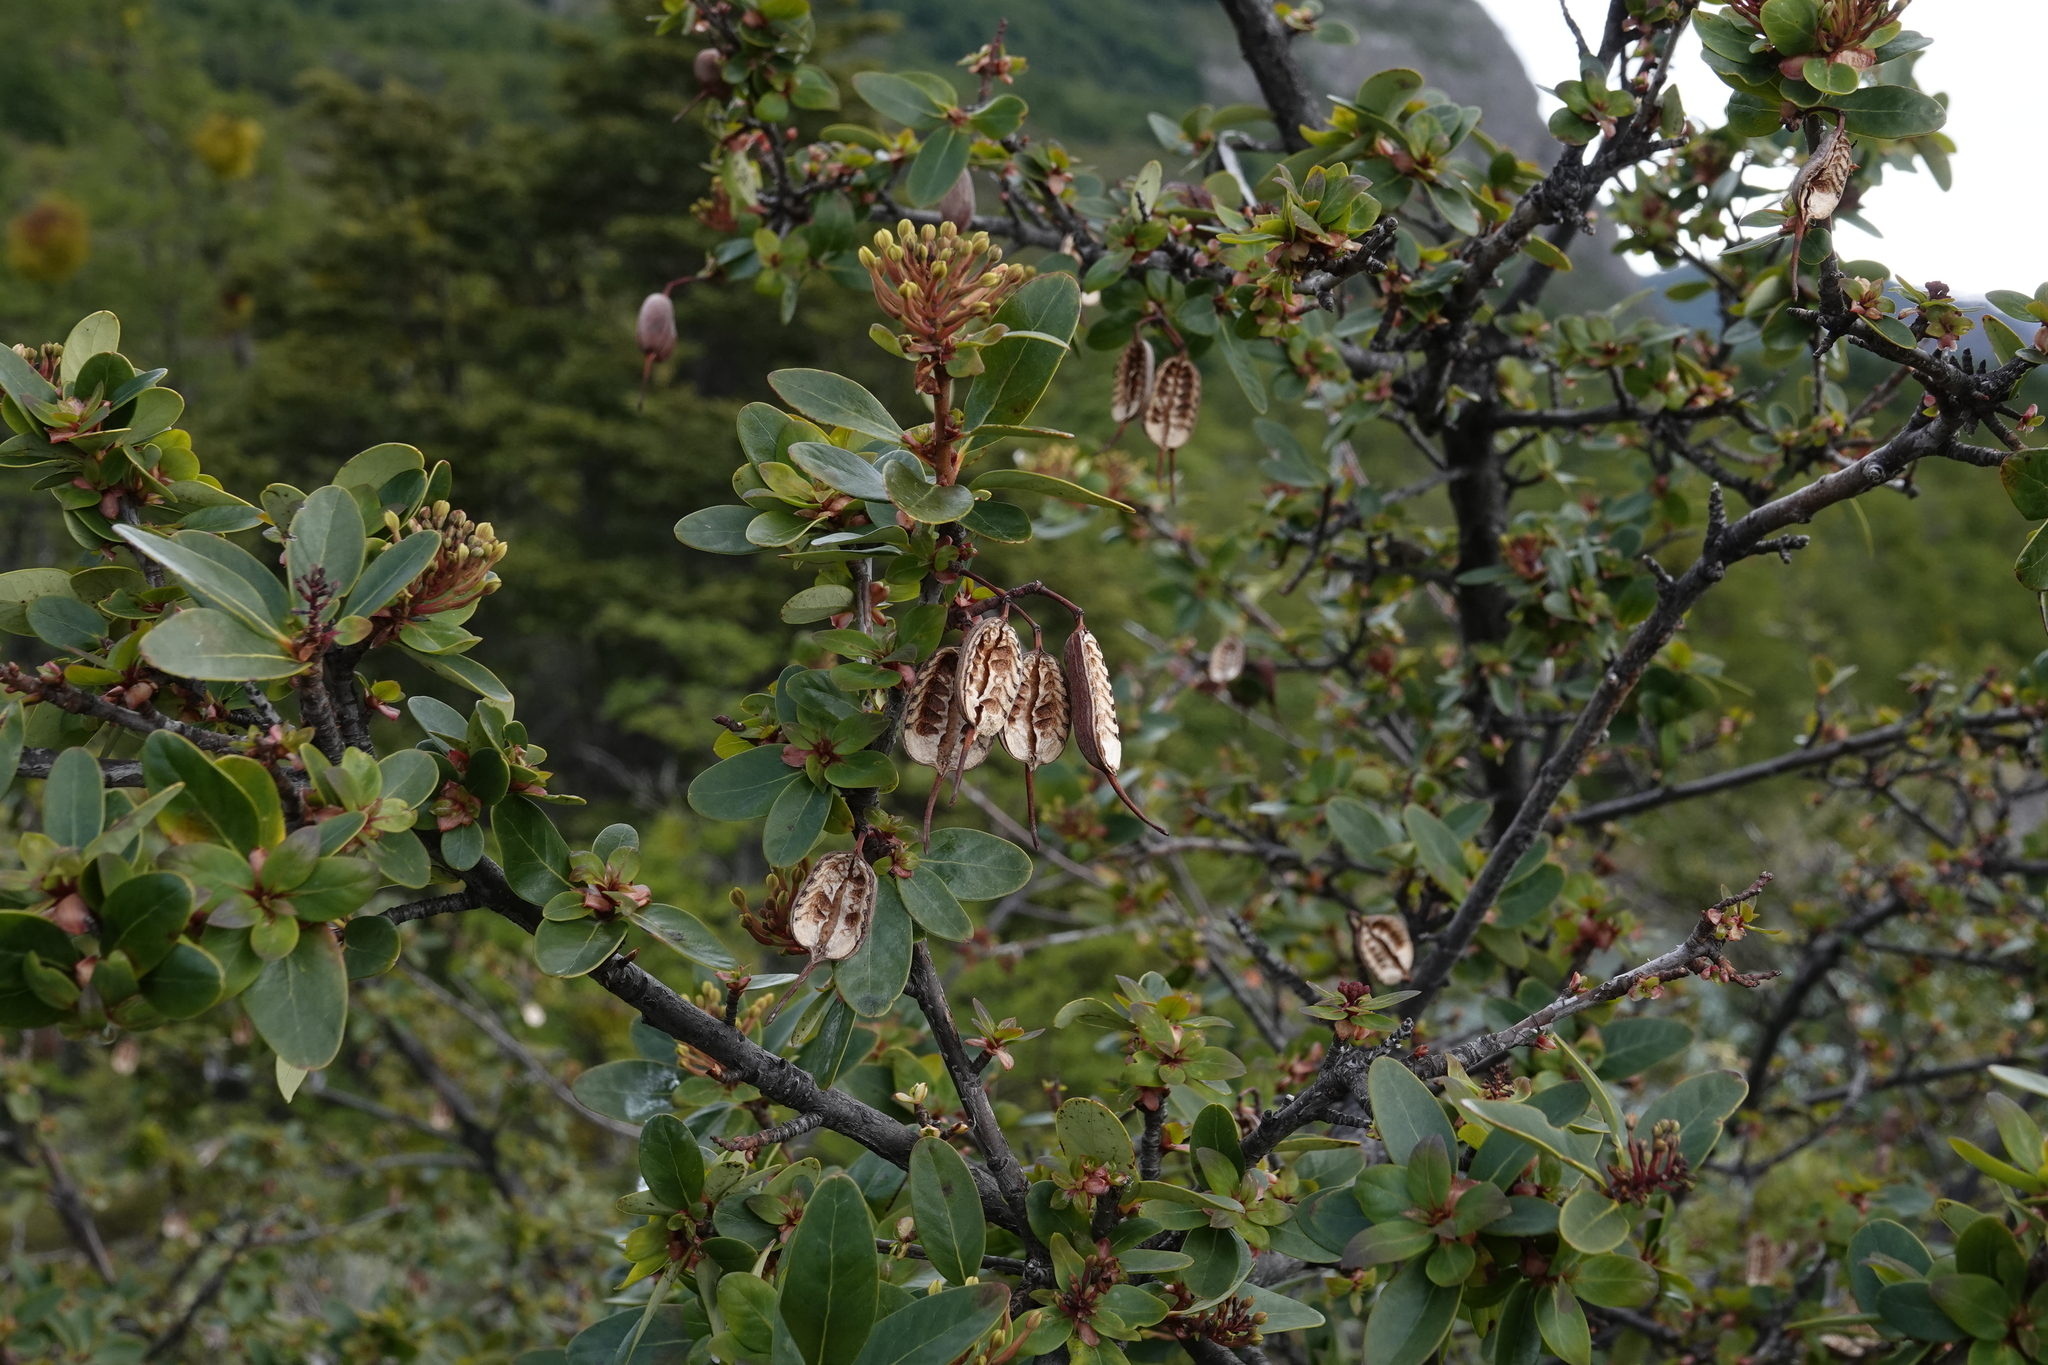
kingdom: Plantae
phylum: Tracheophyta
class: Magnoliopsida
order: Proteales
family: Proteaceae
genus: Embothrium
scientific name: Embothrium coccineum
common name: Chilean firebush
